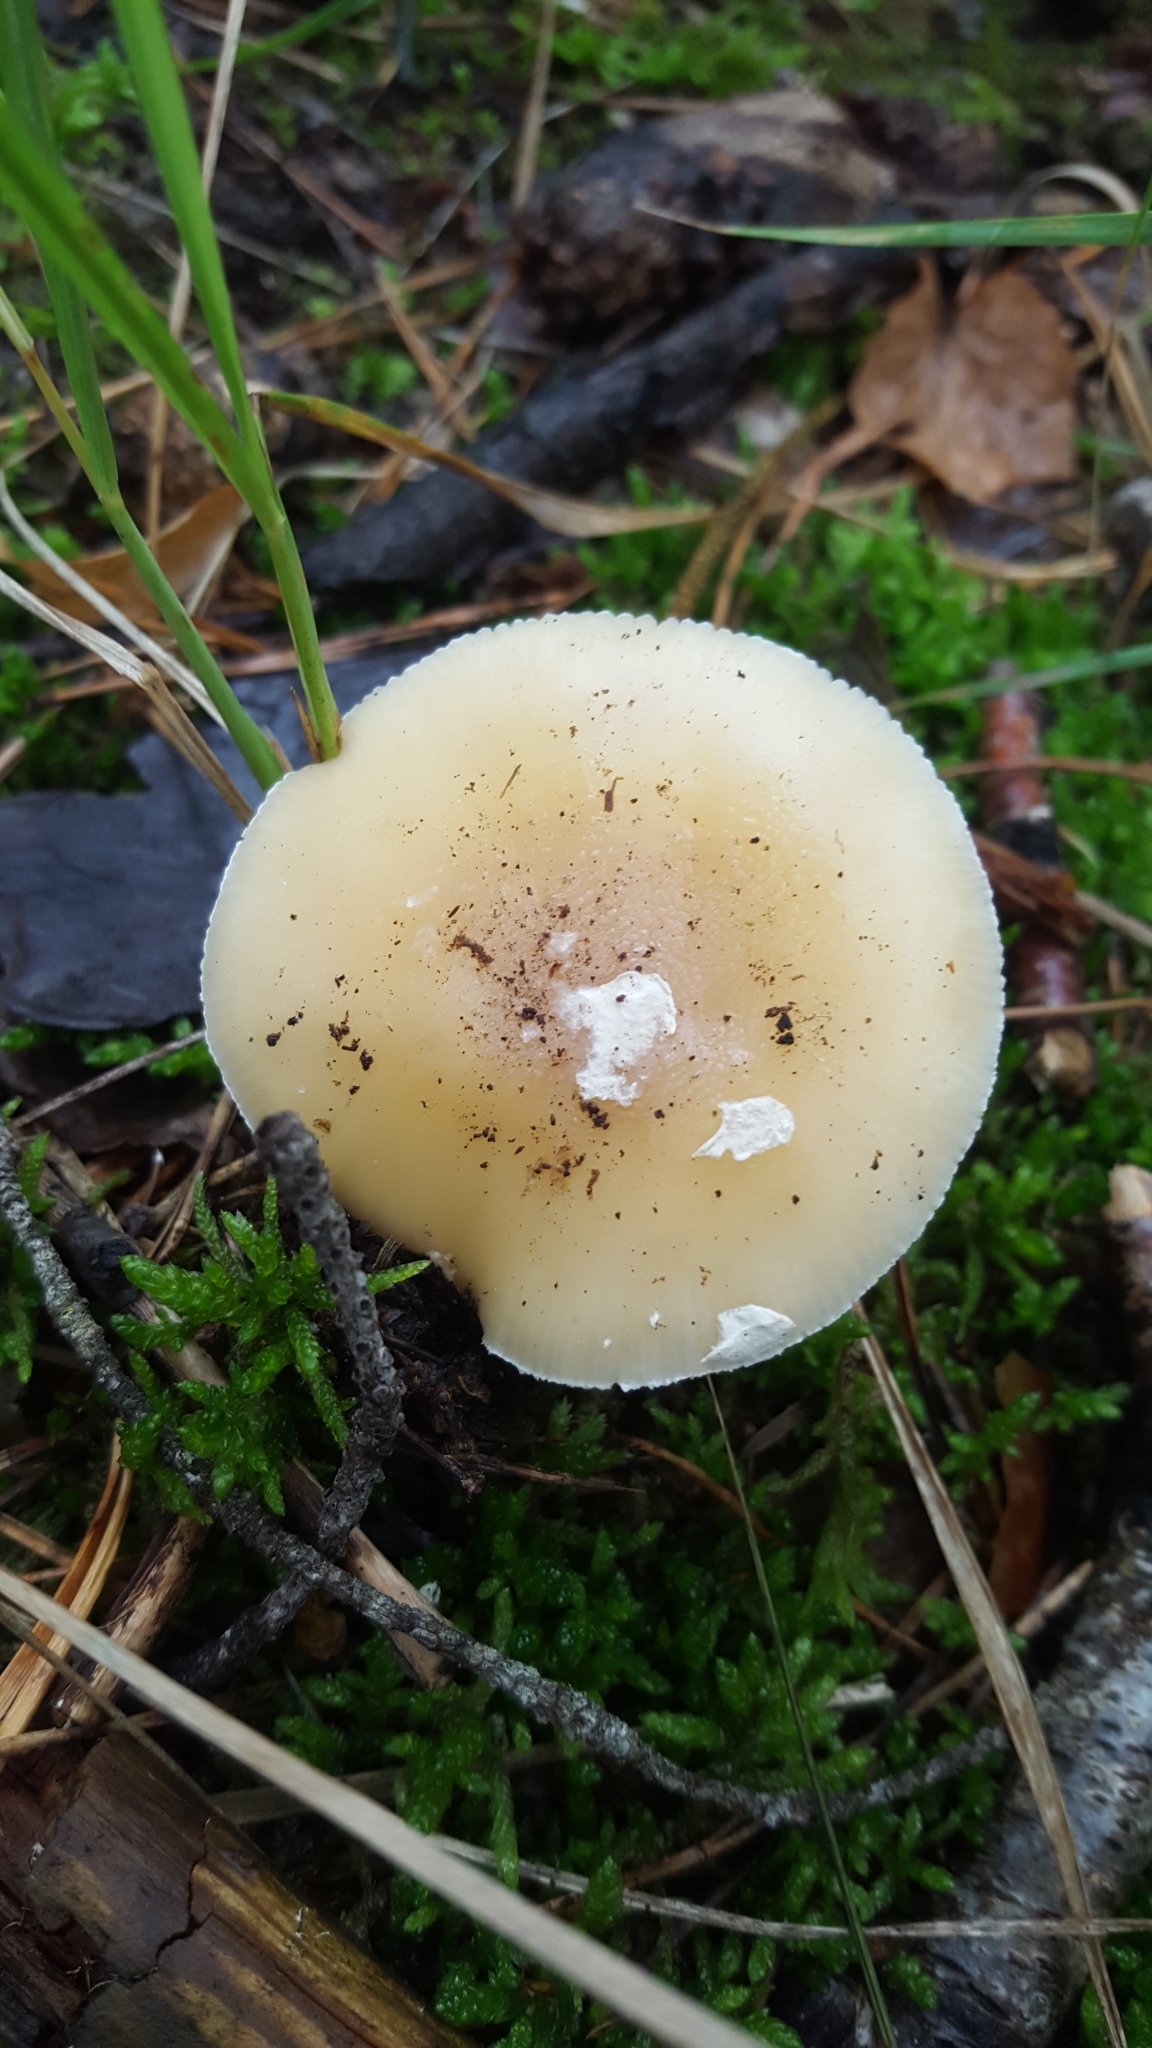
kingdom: Fungi
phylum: Basidiomycota
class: Agaricomycetes
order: Agaricales
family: Amanitaceae
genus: Amanita
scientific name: Amanita gemmata
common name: Jewelled amanita
